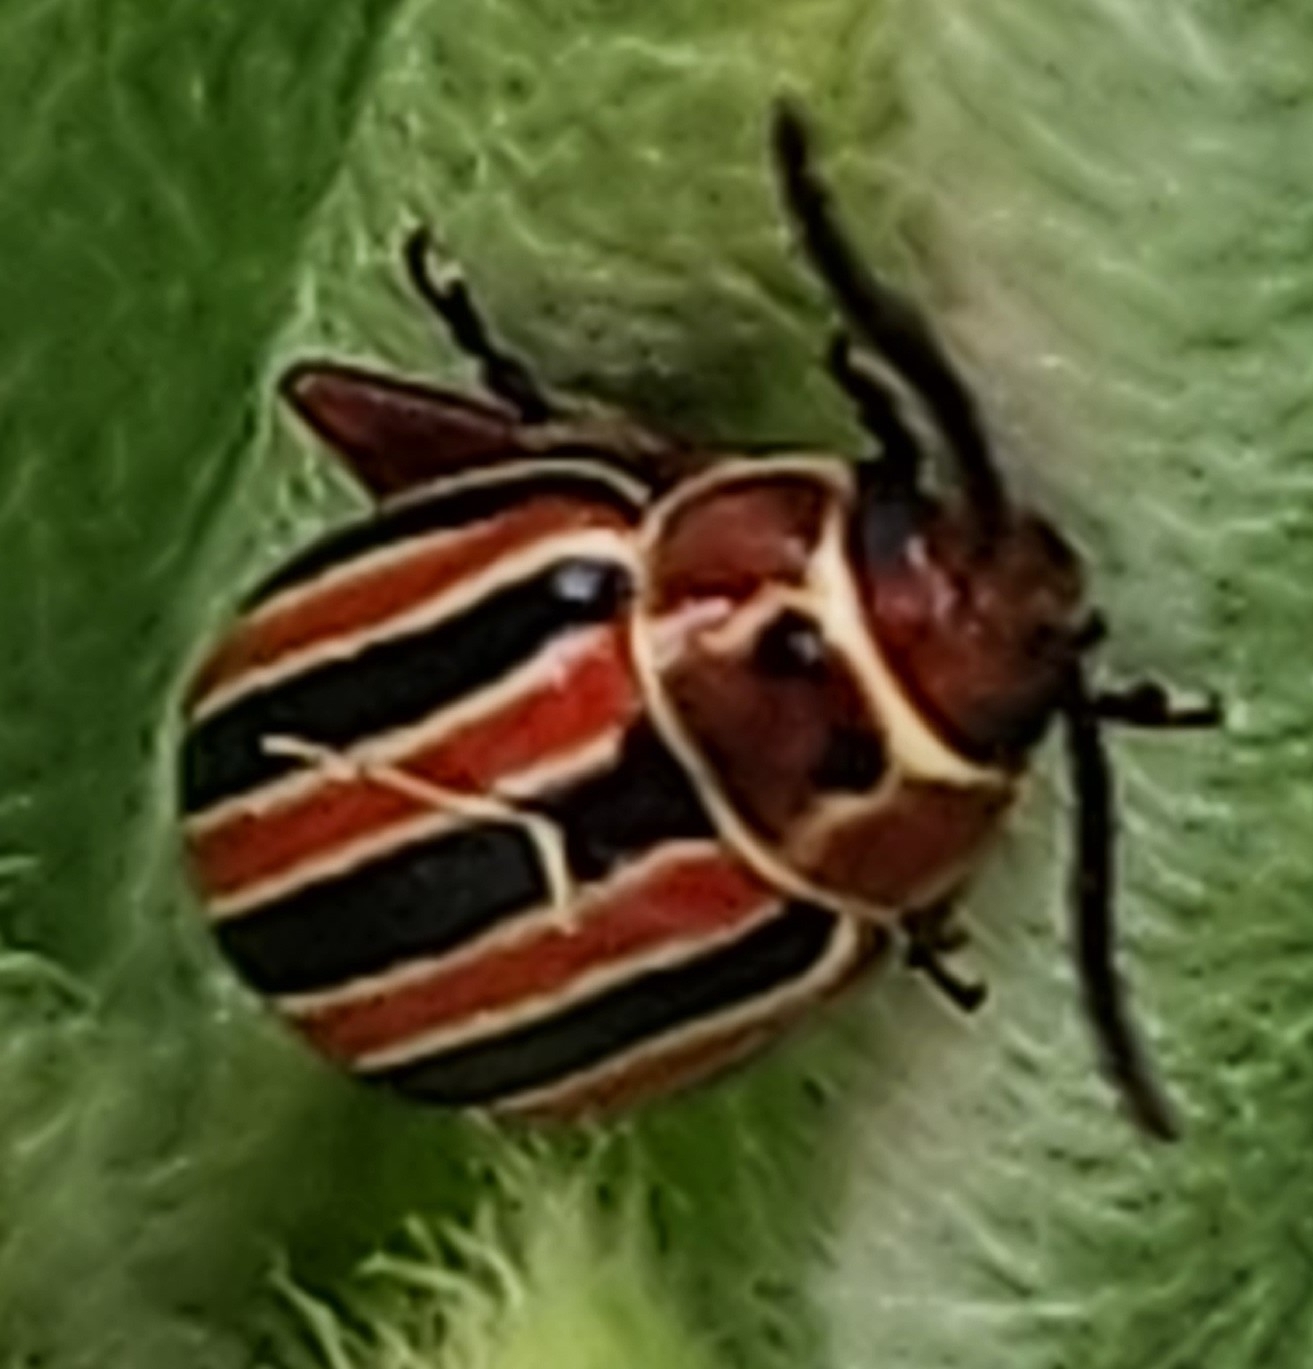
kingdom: Animalia
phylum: Arthropoda
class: Insecta
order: Coleoptera
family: Chrysomelidae
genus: Disonycha
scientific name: Disonycha caroliniana
